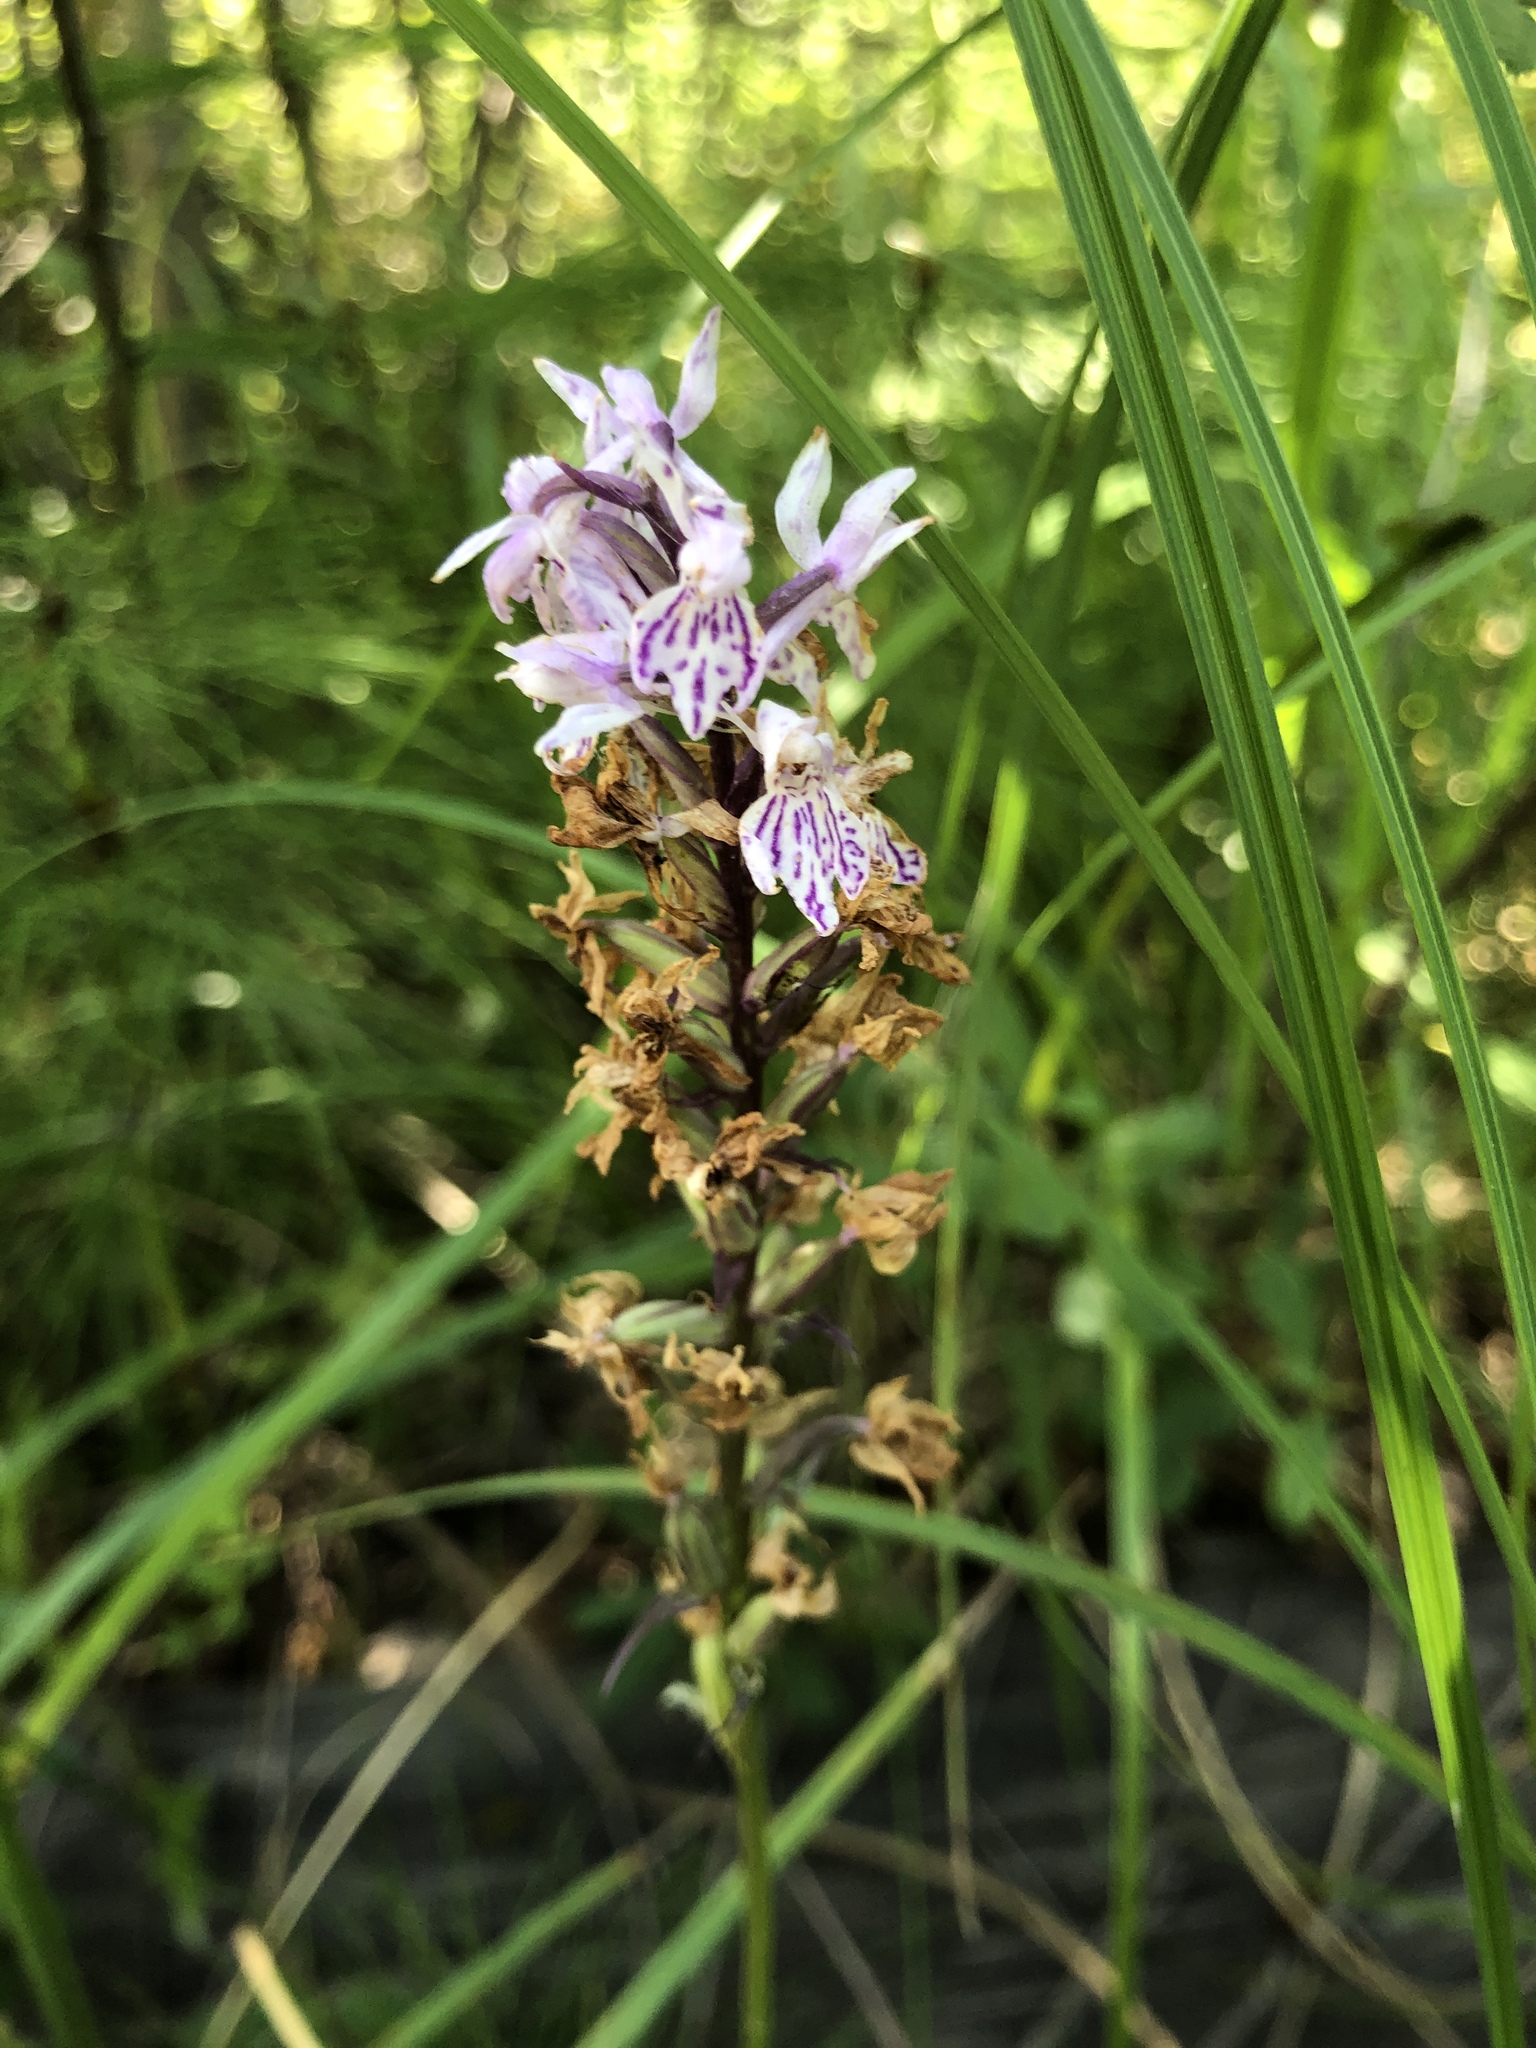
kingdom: Plantae
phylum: Tracheophyta
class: Liliopsida
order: Asparagales
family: Orchidaceae
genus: Dactylorhiza
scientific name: Dactylorhiza maculata
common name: Heath spotted-orchid
